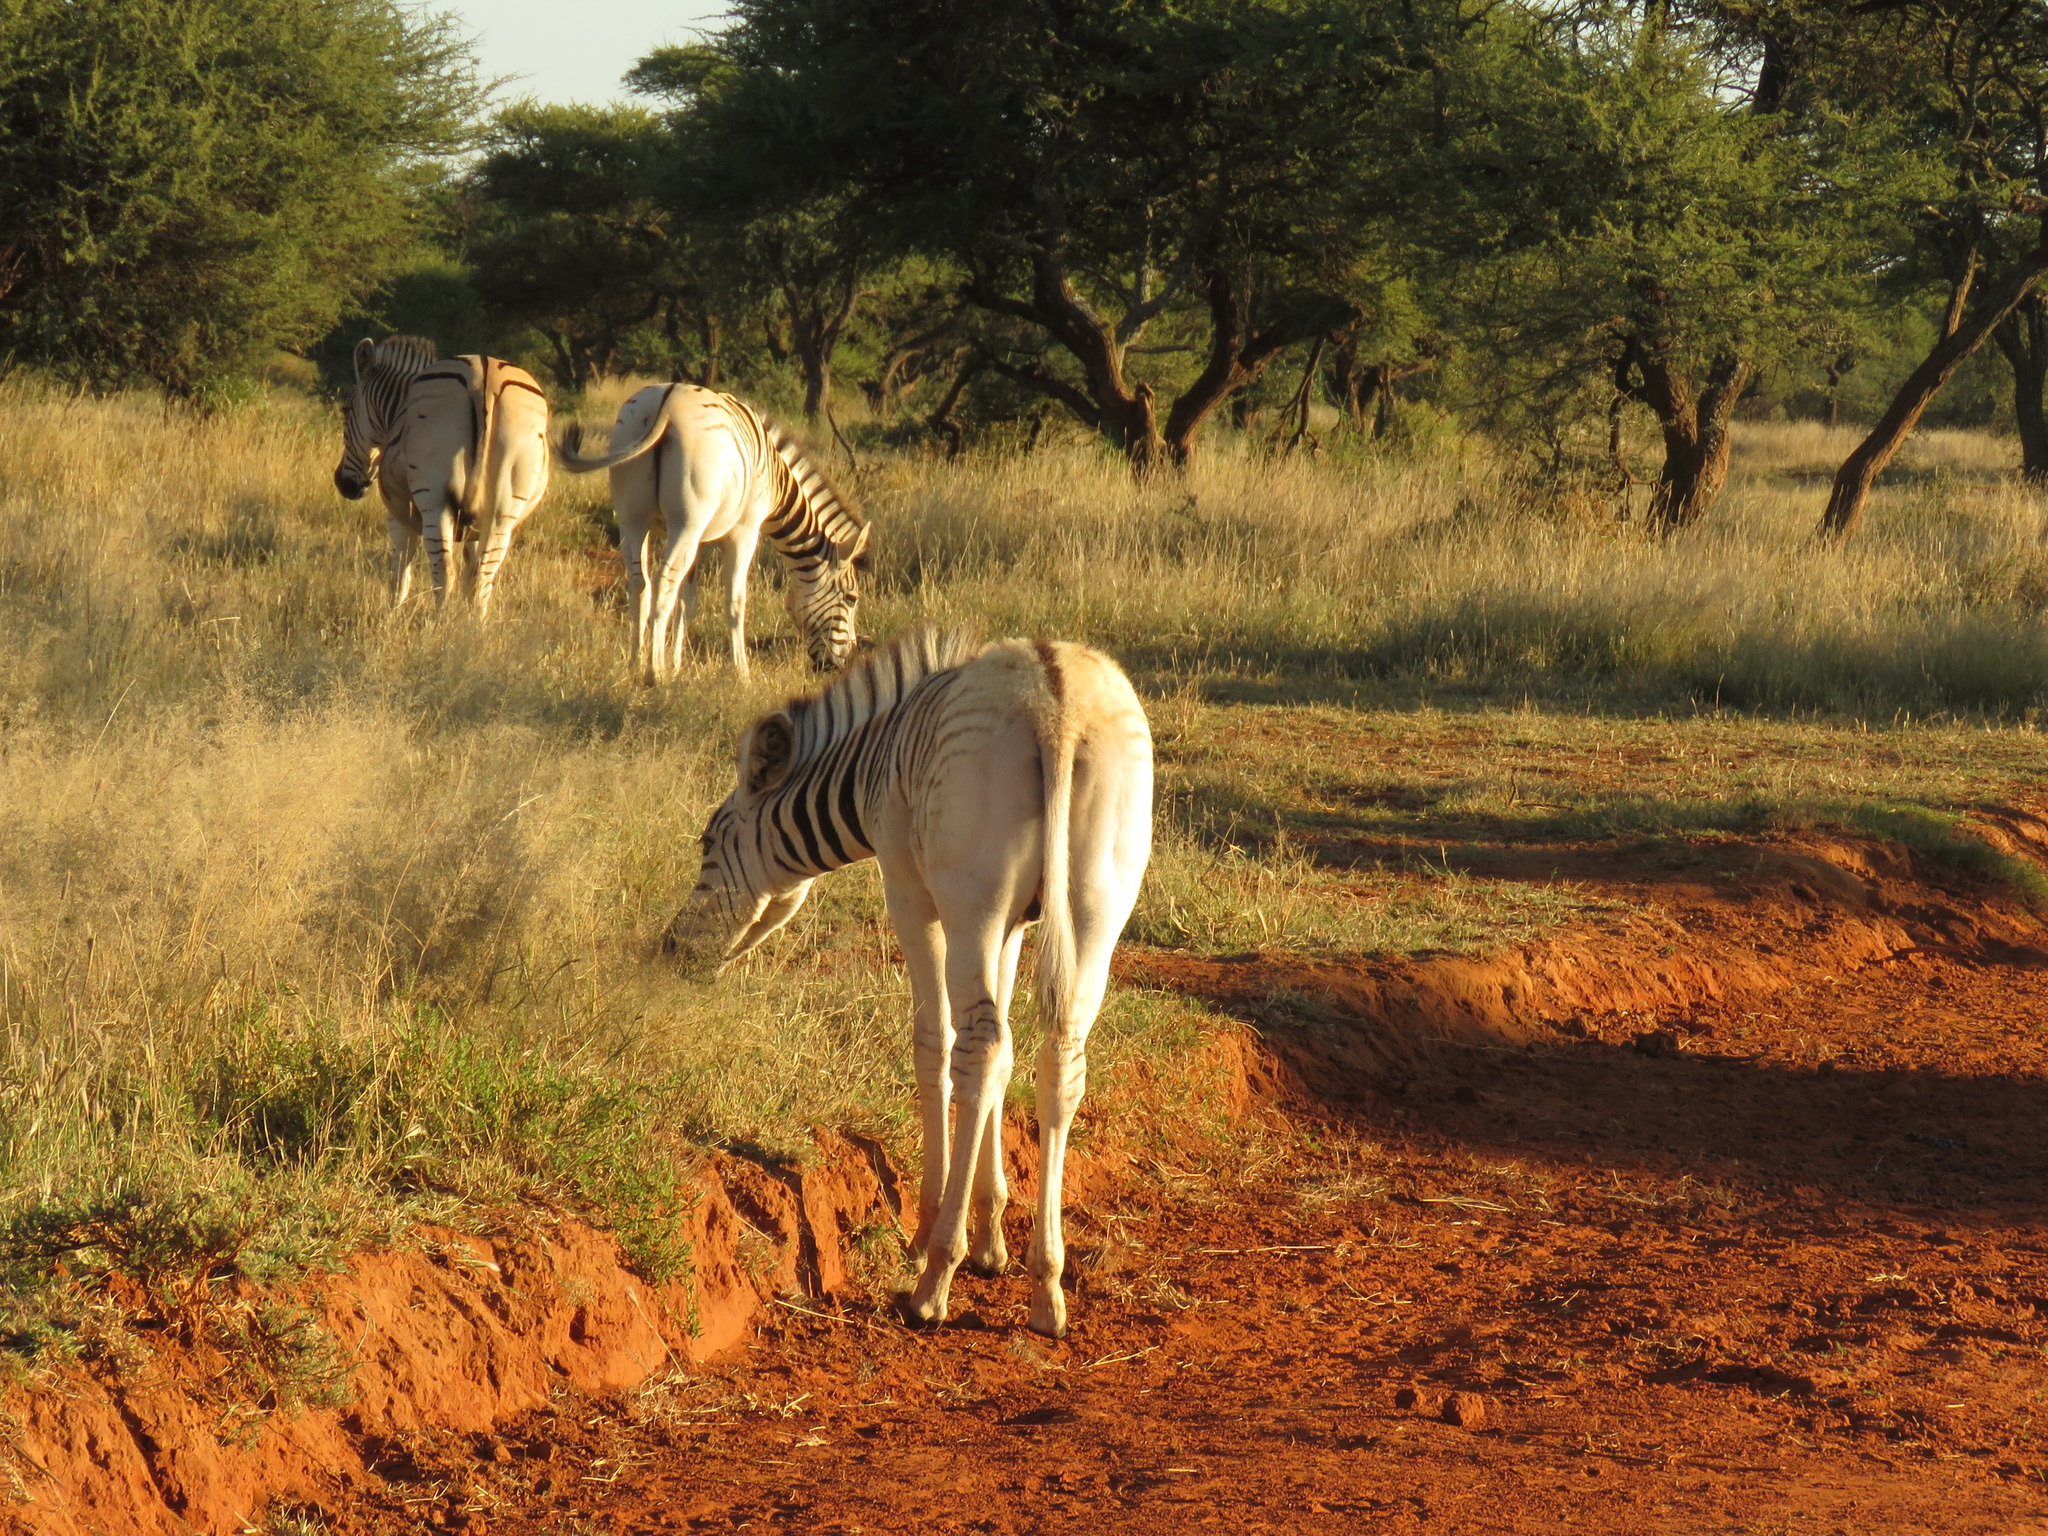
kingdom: Animalia
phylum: Chordata
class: Mammalia
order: Perissodactyla
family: Equidae
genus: Equus
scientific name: Equus quagga
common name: Plains zebra
